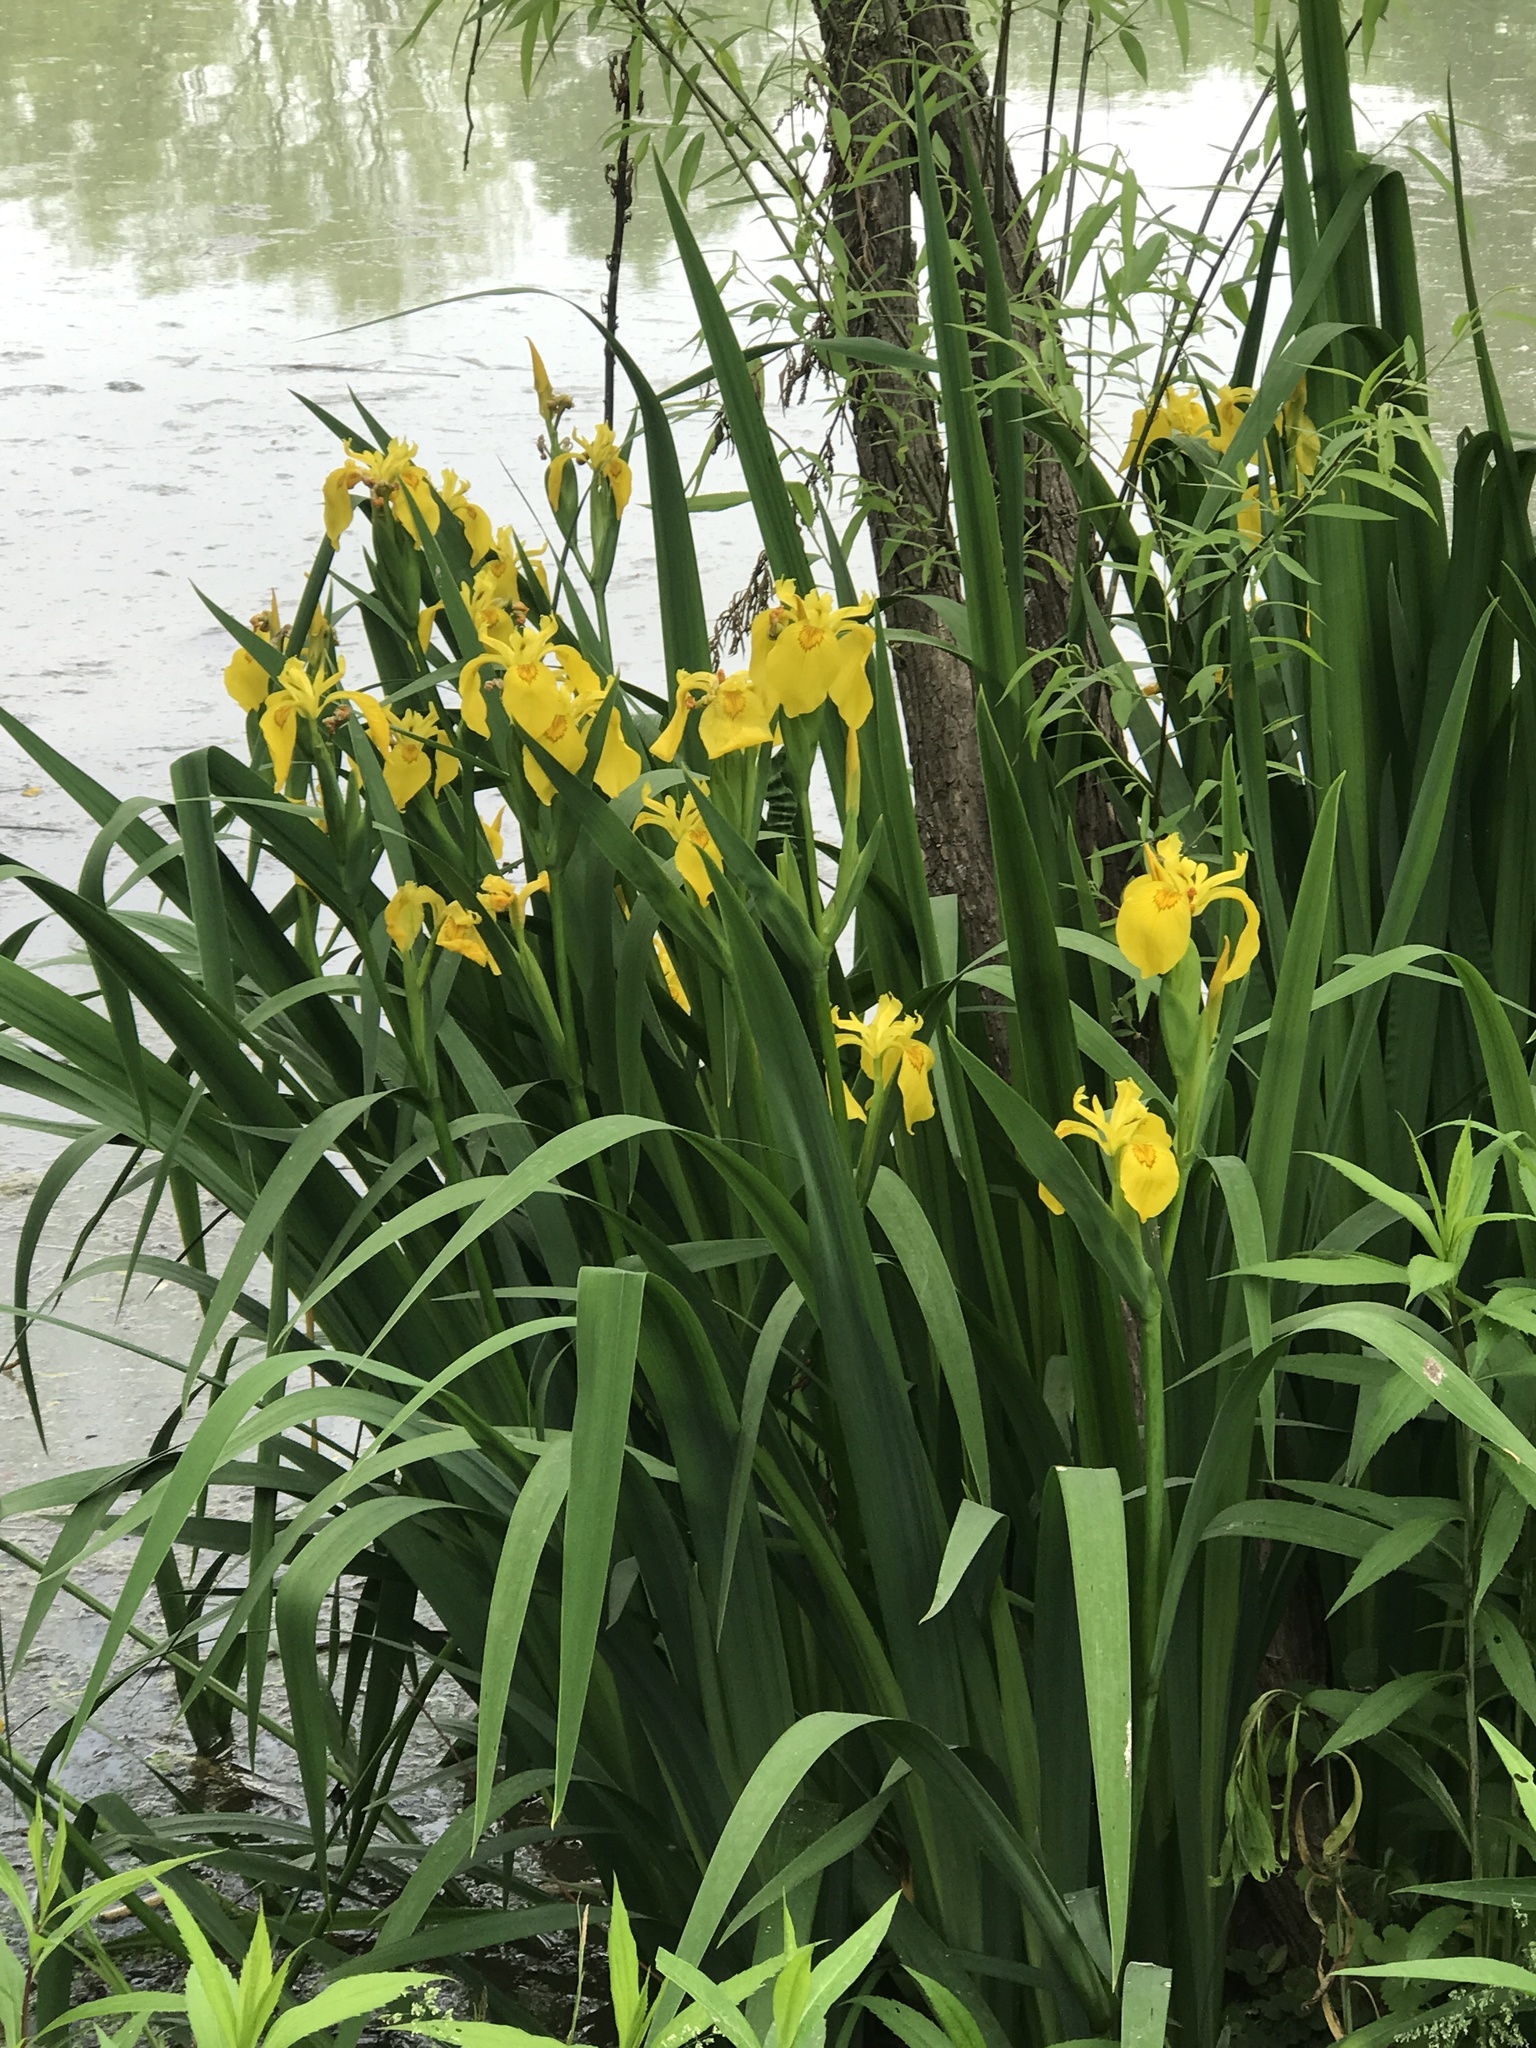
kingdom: Plantae
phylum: Tracheophyta
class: Liliopsida
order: Asparagales
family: Iridaceae
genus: Iris
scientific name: Iris pseudacorus
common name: Yellow flag
